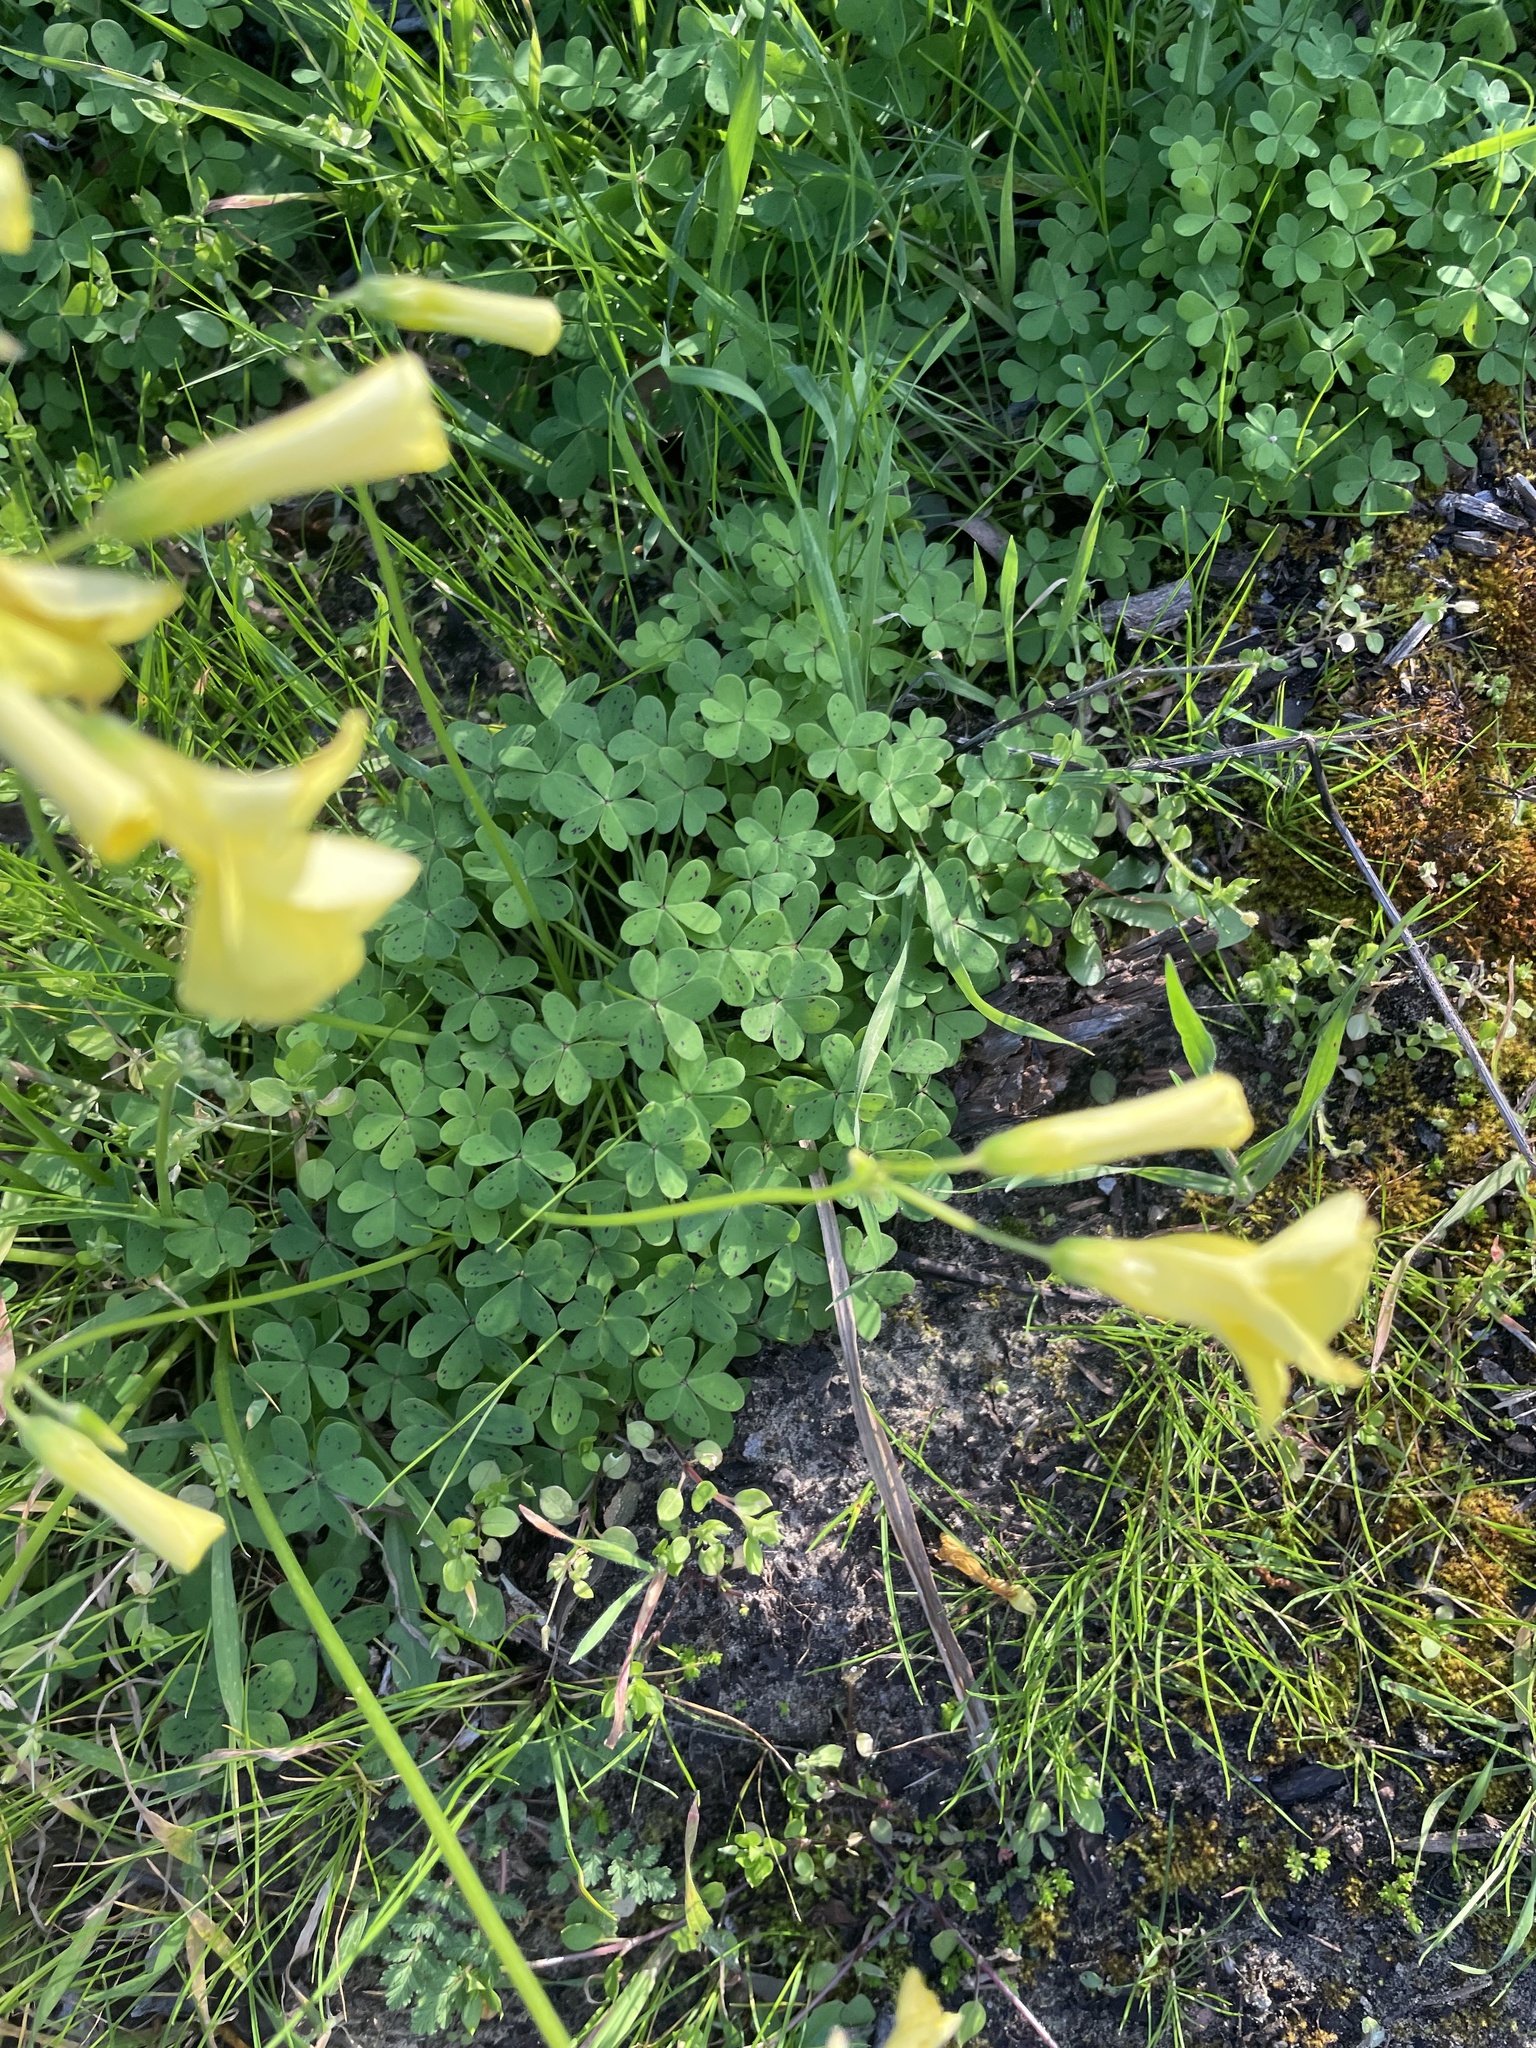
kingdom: Plantae
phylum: Tracheophyta
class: Magnoliopsida
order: Oxalidales
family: Oxalidaceae
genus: Oxalis
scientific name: Oxalis pes-caprae
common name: Bermuda-buttercup
